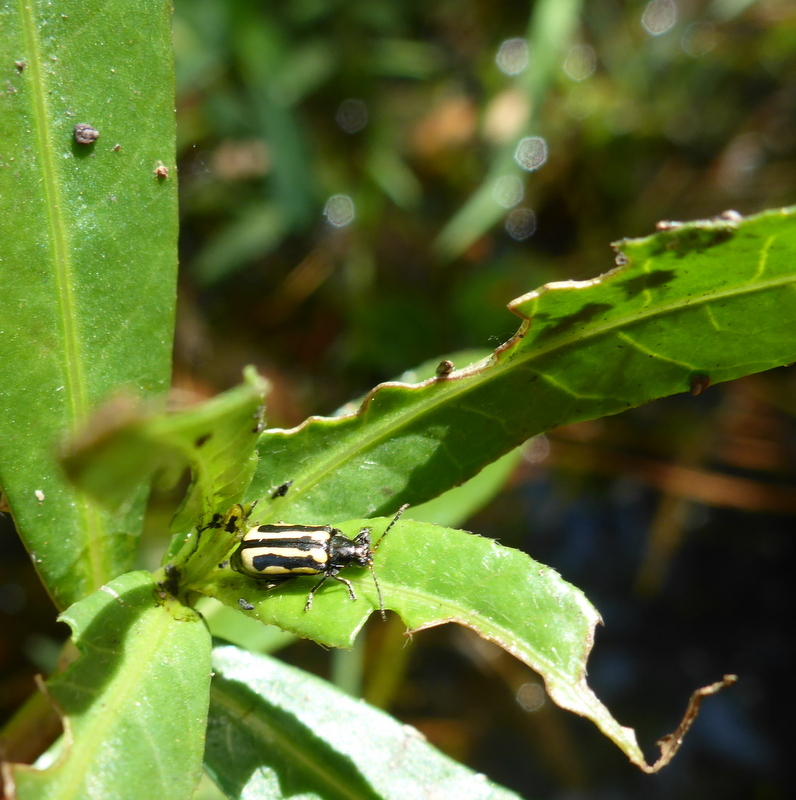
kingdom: Animalia
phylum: Arthropoda
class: Insecta
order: Coleoptera
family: Chrysomelidae
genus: Agasicles
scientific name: Agasicles hygrophila
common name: Alligatorweed flea beetle
